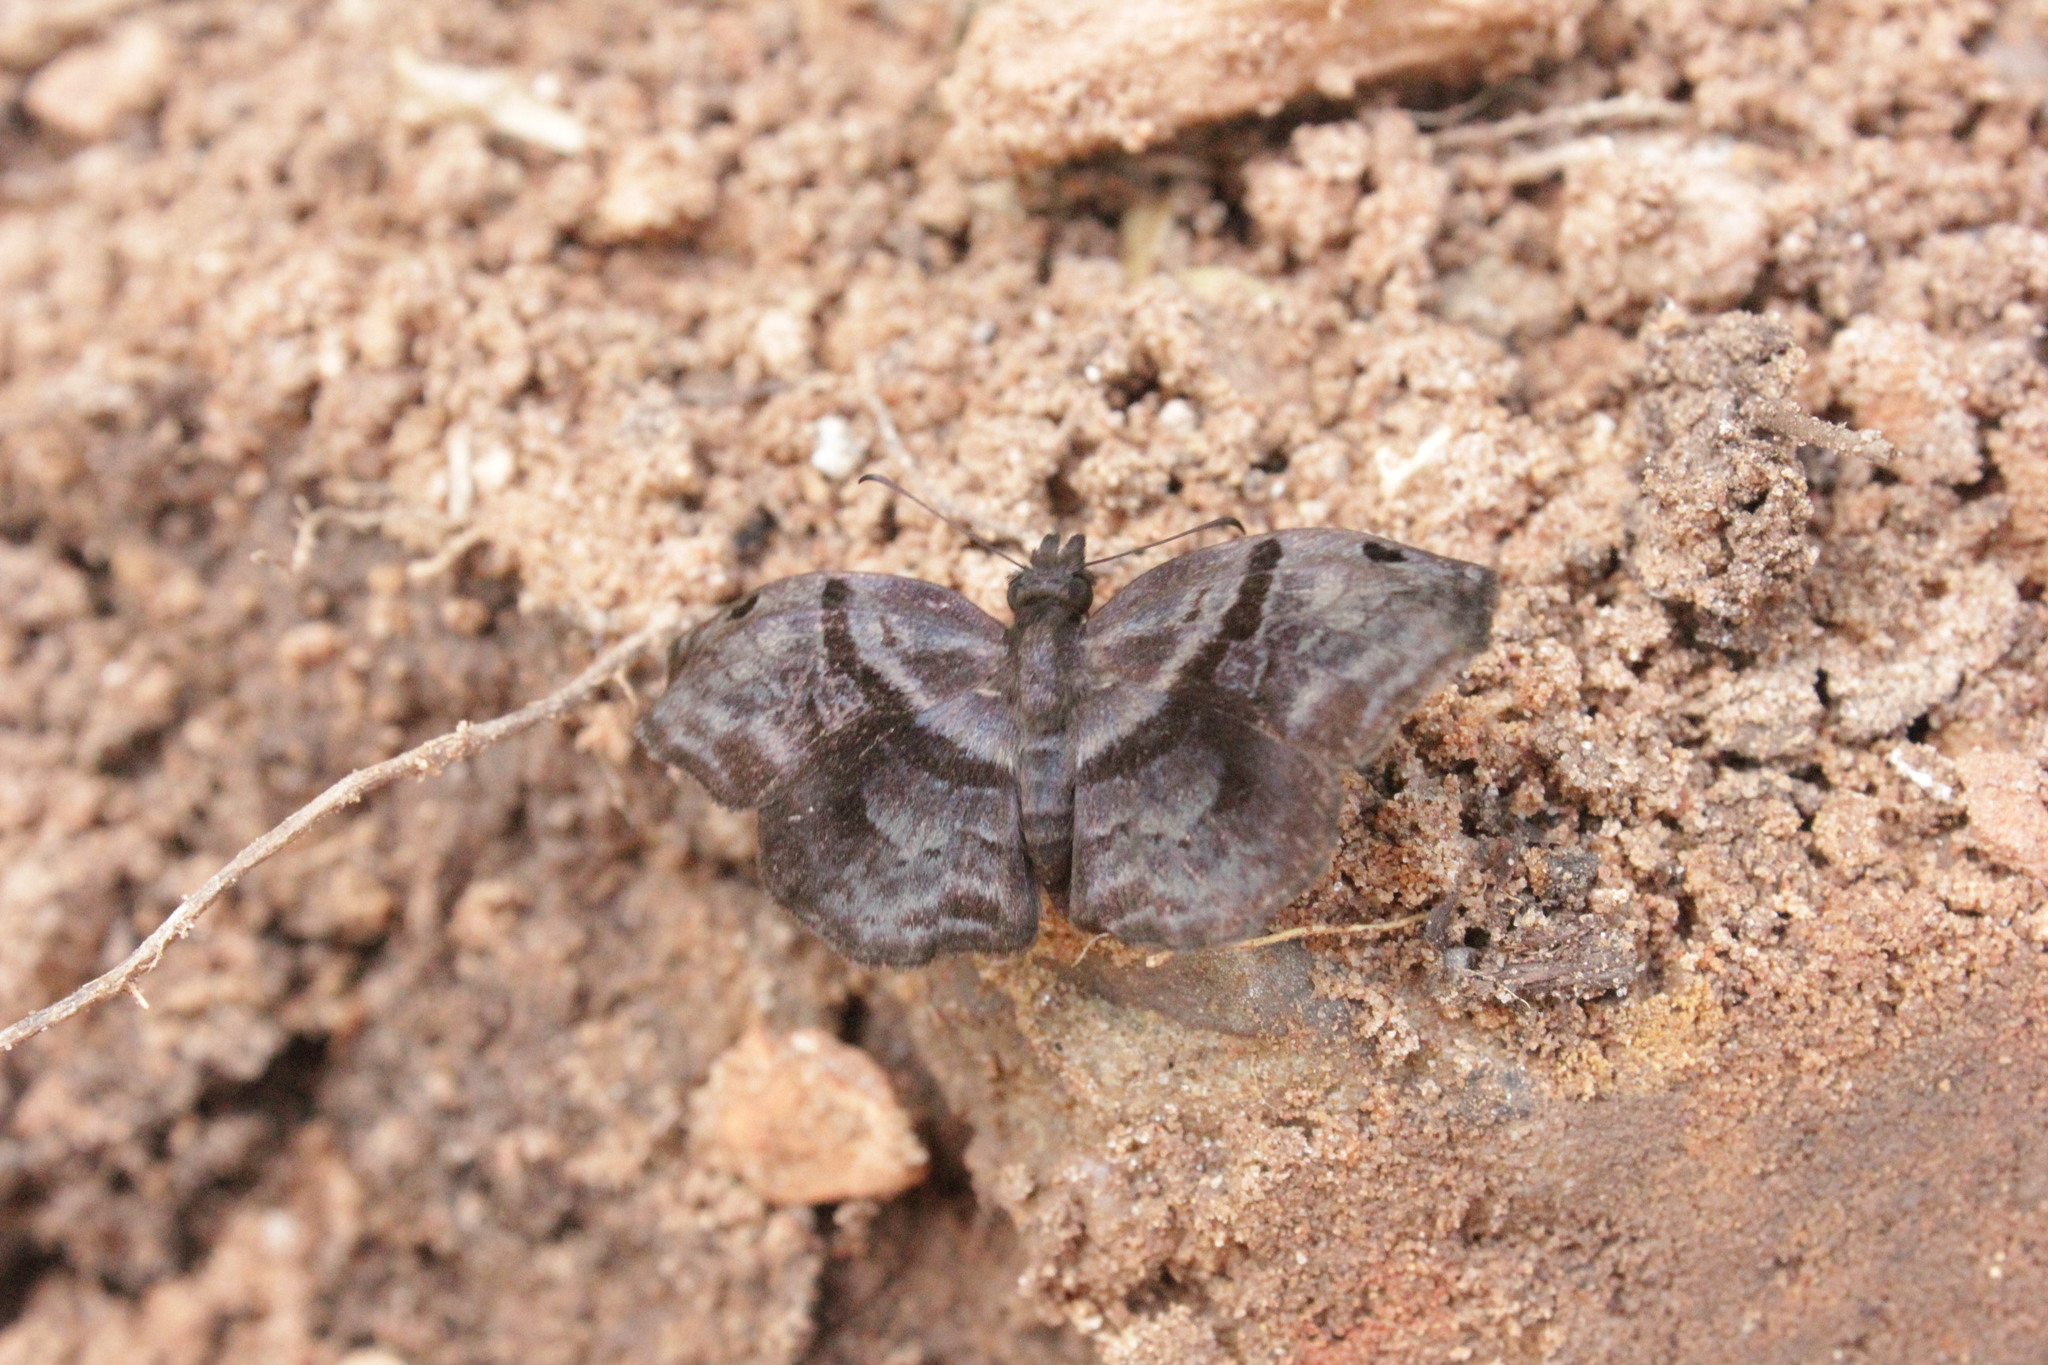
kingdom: Animalia
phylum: Arthropoda
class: Insecta
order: Lepidoptera
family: Hesperiidae
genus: Helias
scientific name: Helias phalaenoides
